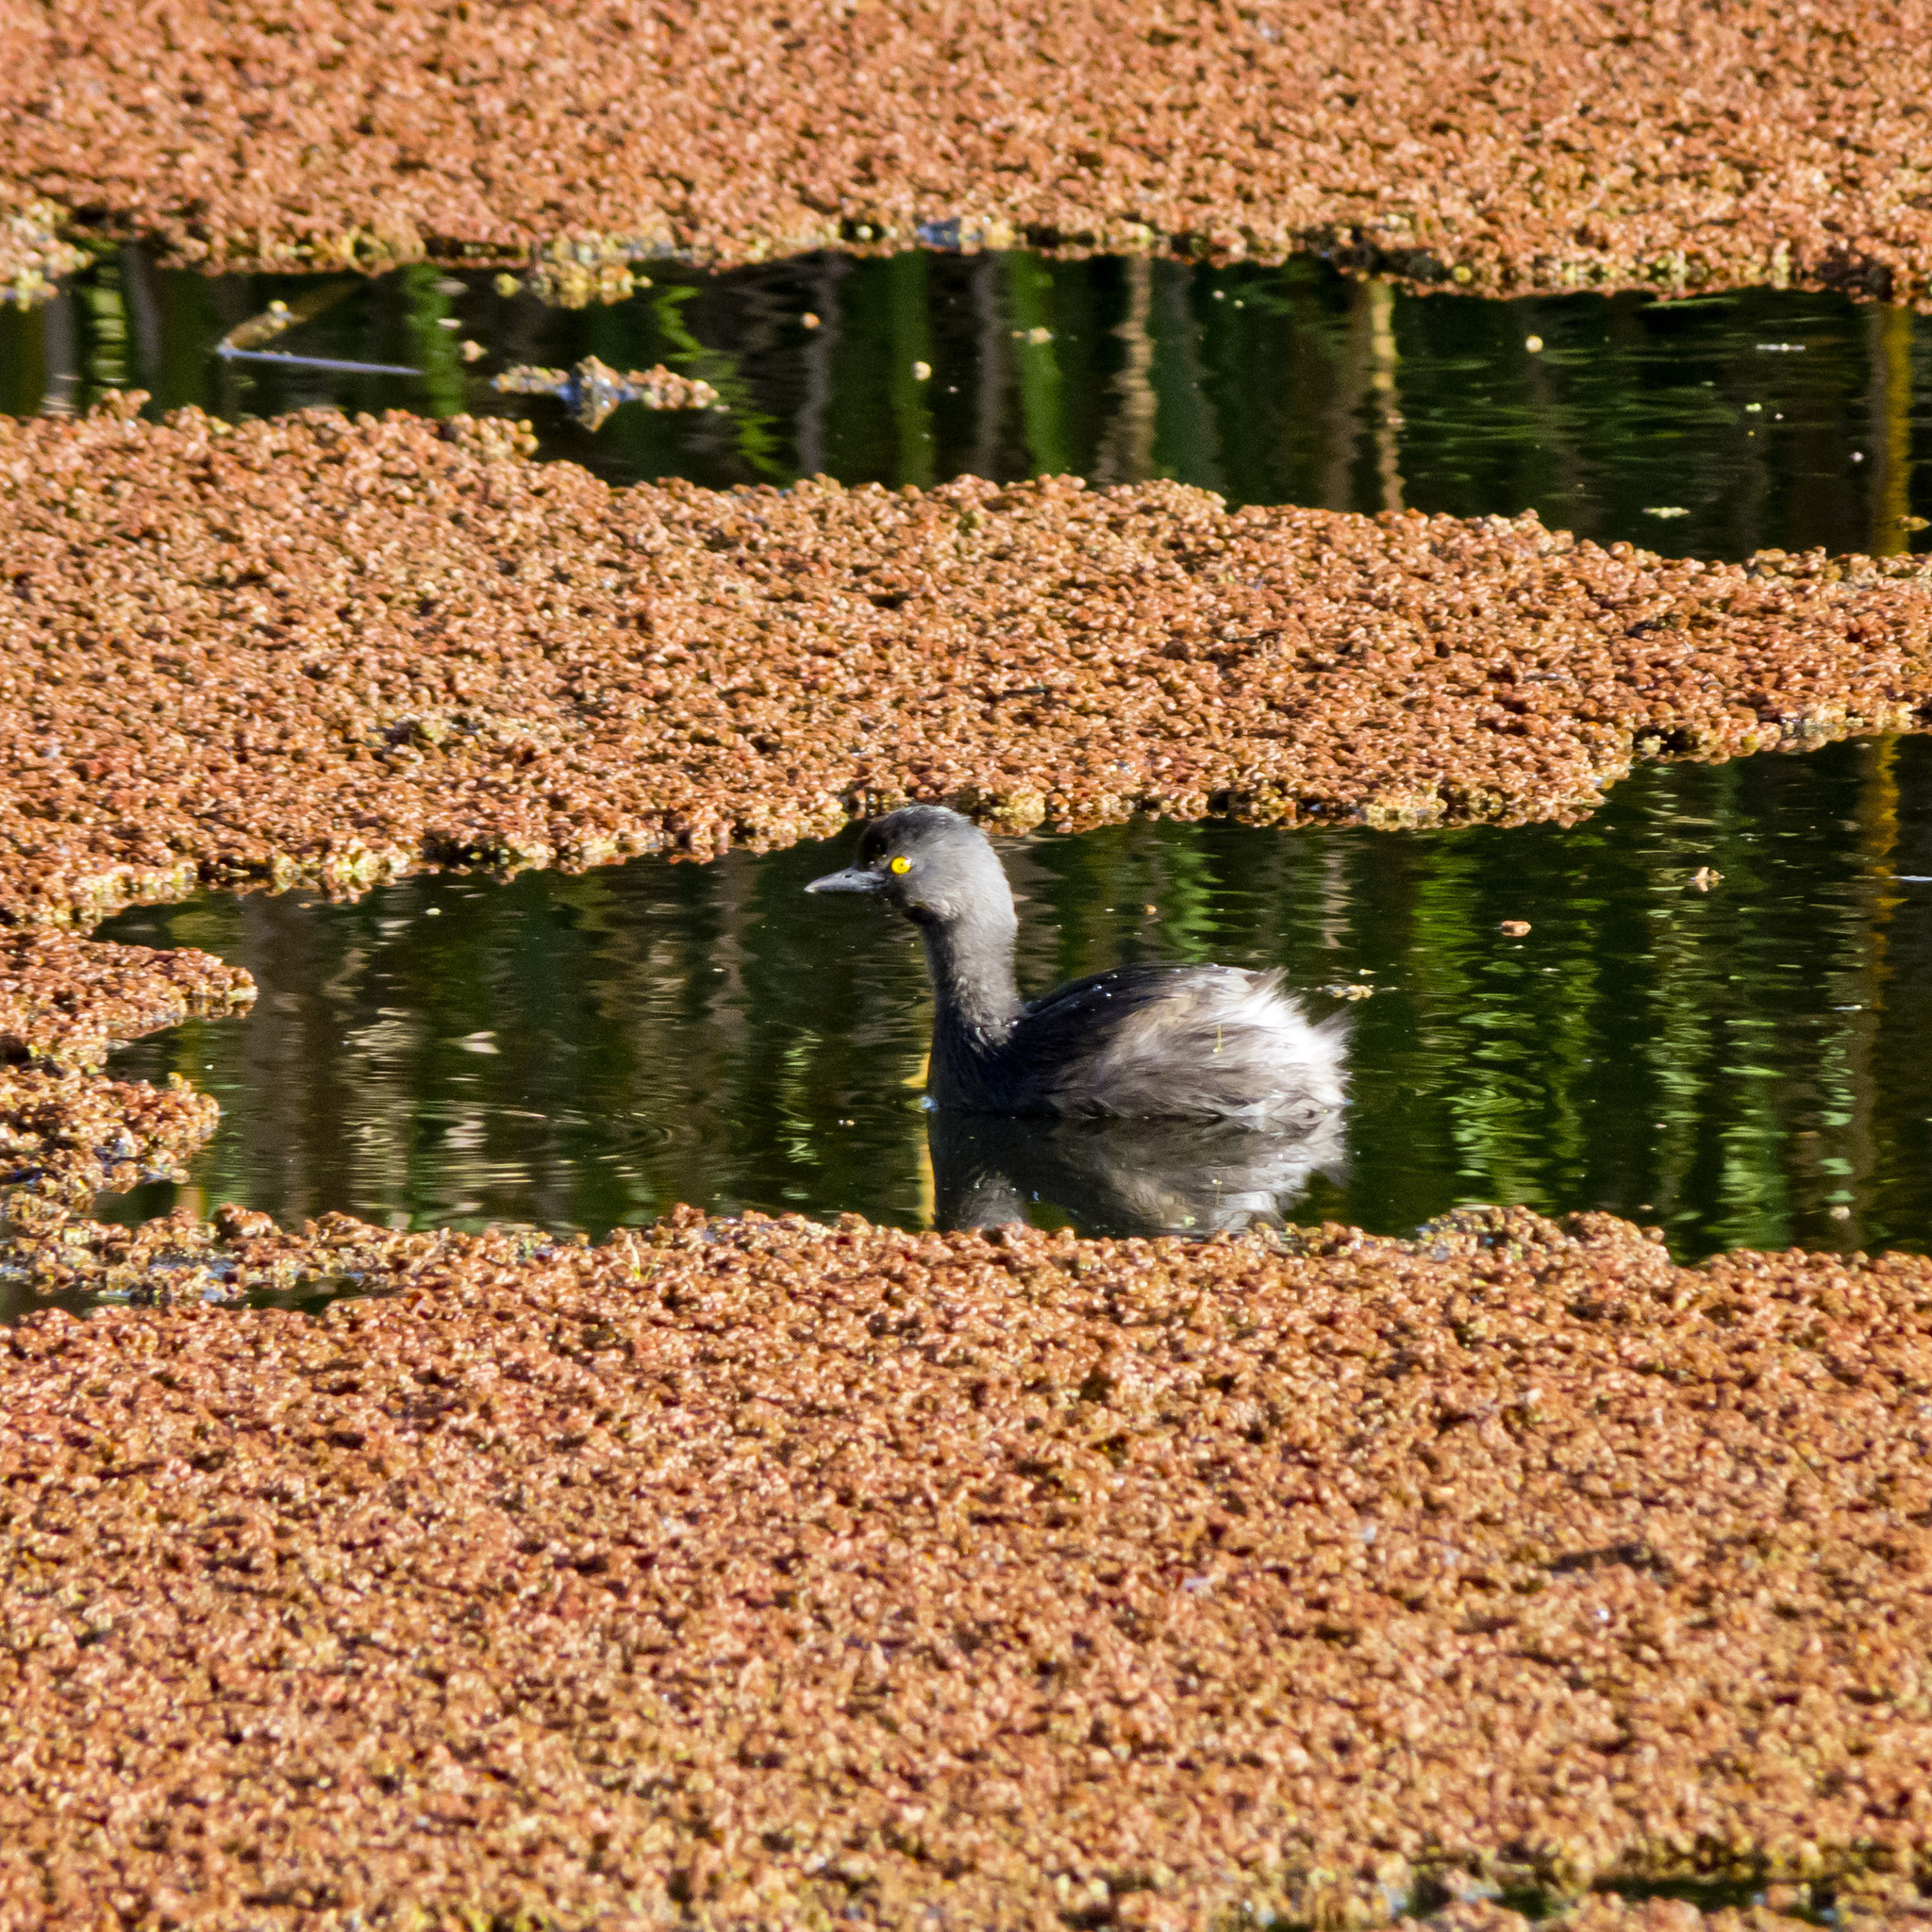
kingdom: Animalia
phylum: Chordata
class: Aves
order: Podicipediformes
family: Podicipedidae
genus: Tachybaptus
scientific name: Tachybaptus dominicus
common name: Least grebe
